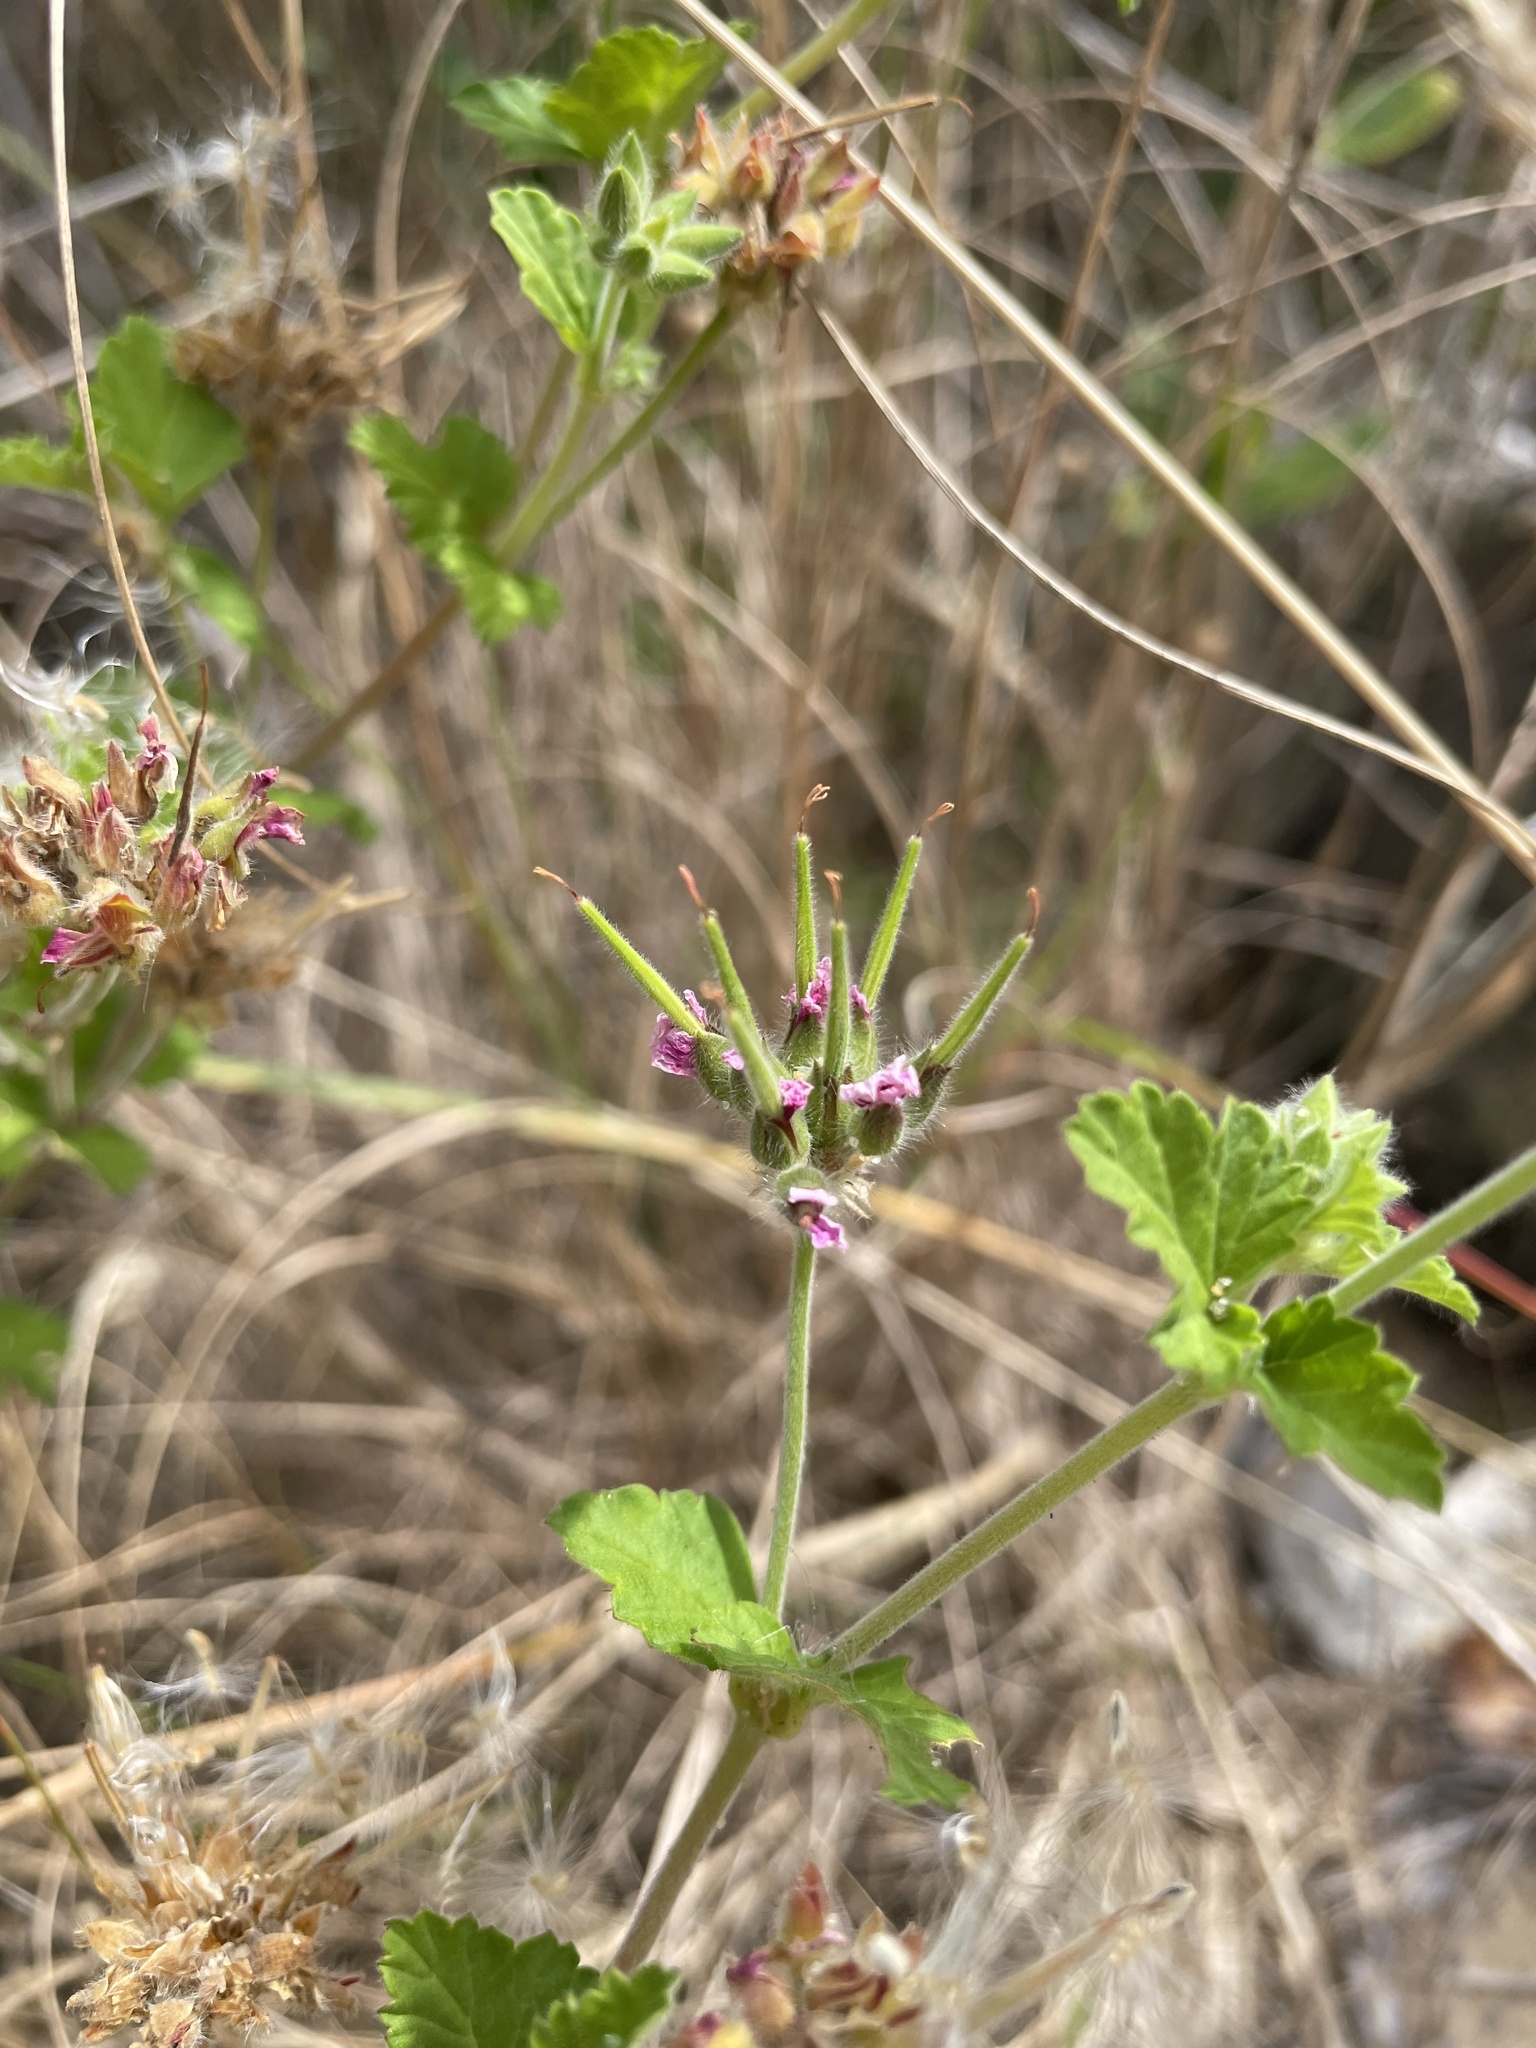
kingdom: Plantae
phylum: Tracheophyta
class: Magnoliopsida
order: Geraniales
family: Geraniaceae
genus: Pelargonium
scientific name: Pelargonium australe
